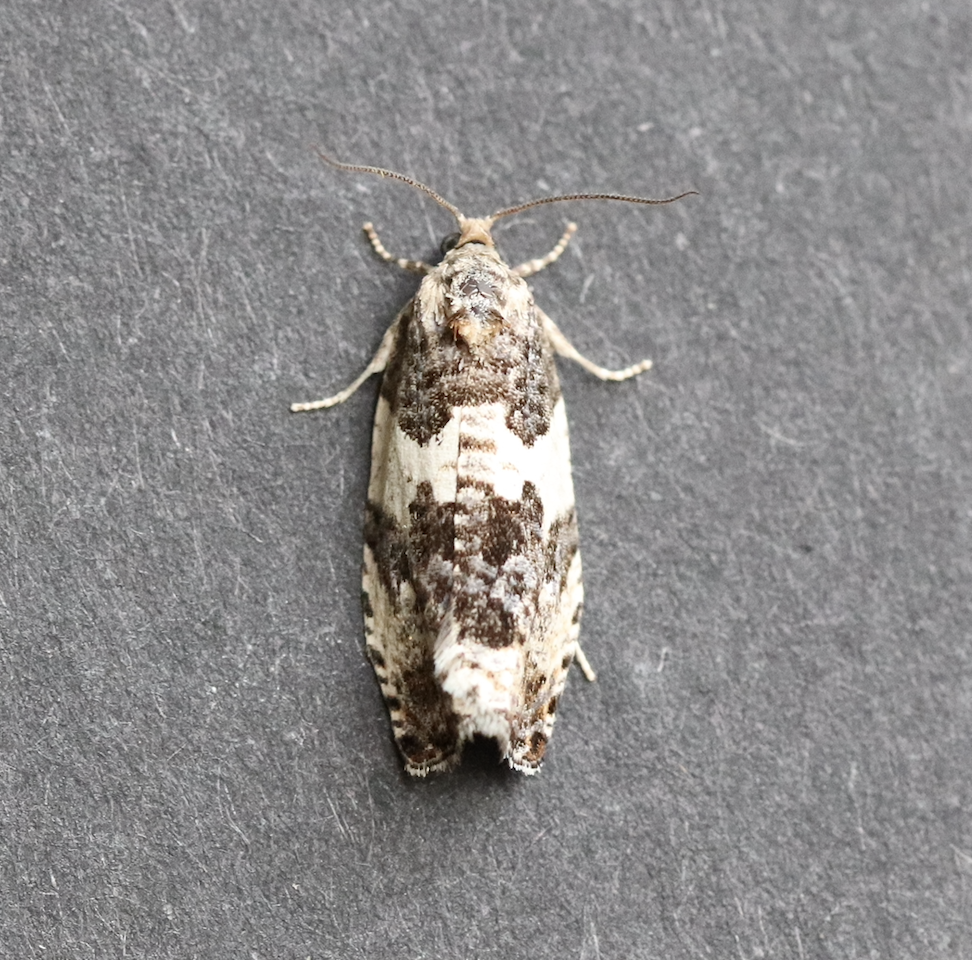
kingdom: Animalia
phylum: Arthropoda
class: Insecta
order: Lepidoptera
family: Tortricidae
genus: Pseudosciaphila
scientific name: Pseudosciaphila duplex
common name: Poplar leafroller moth
